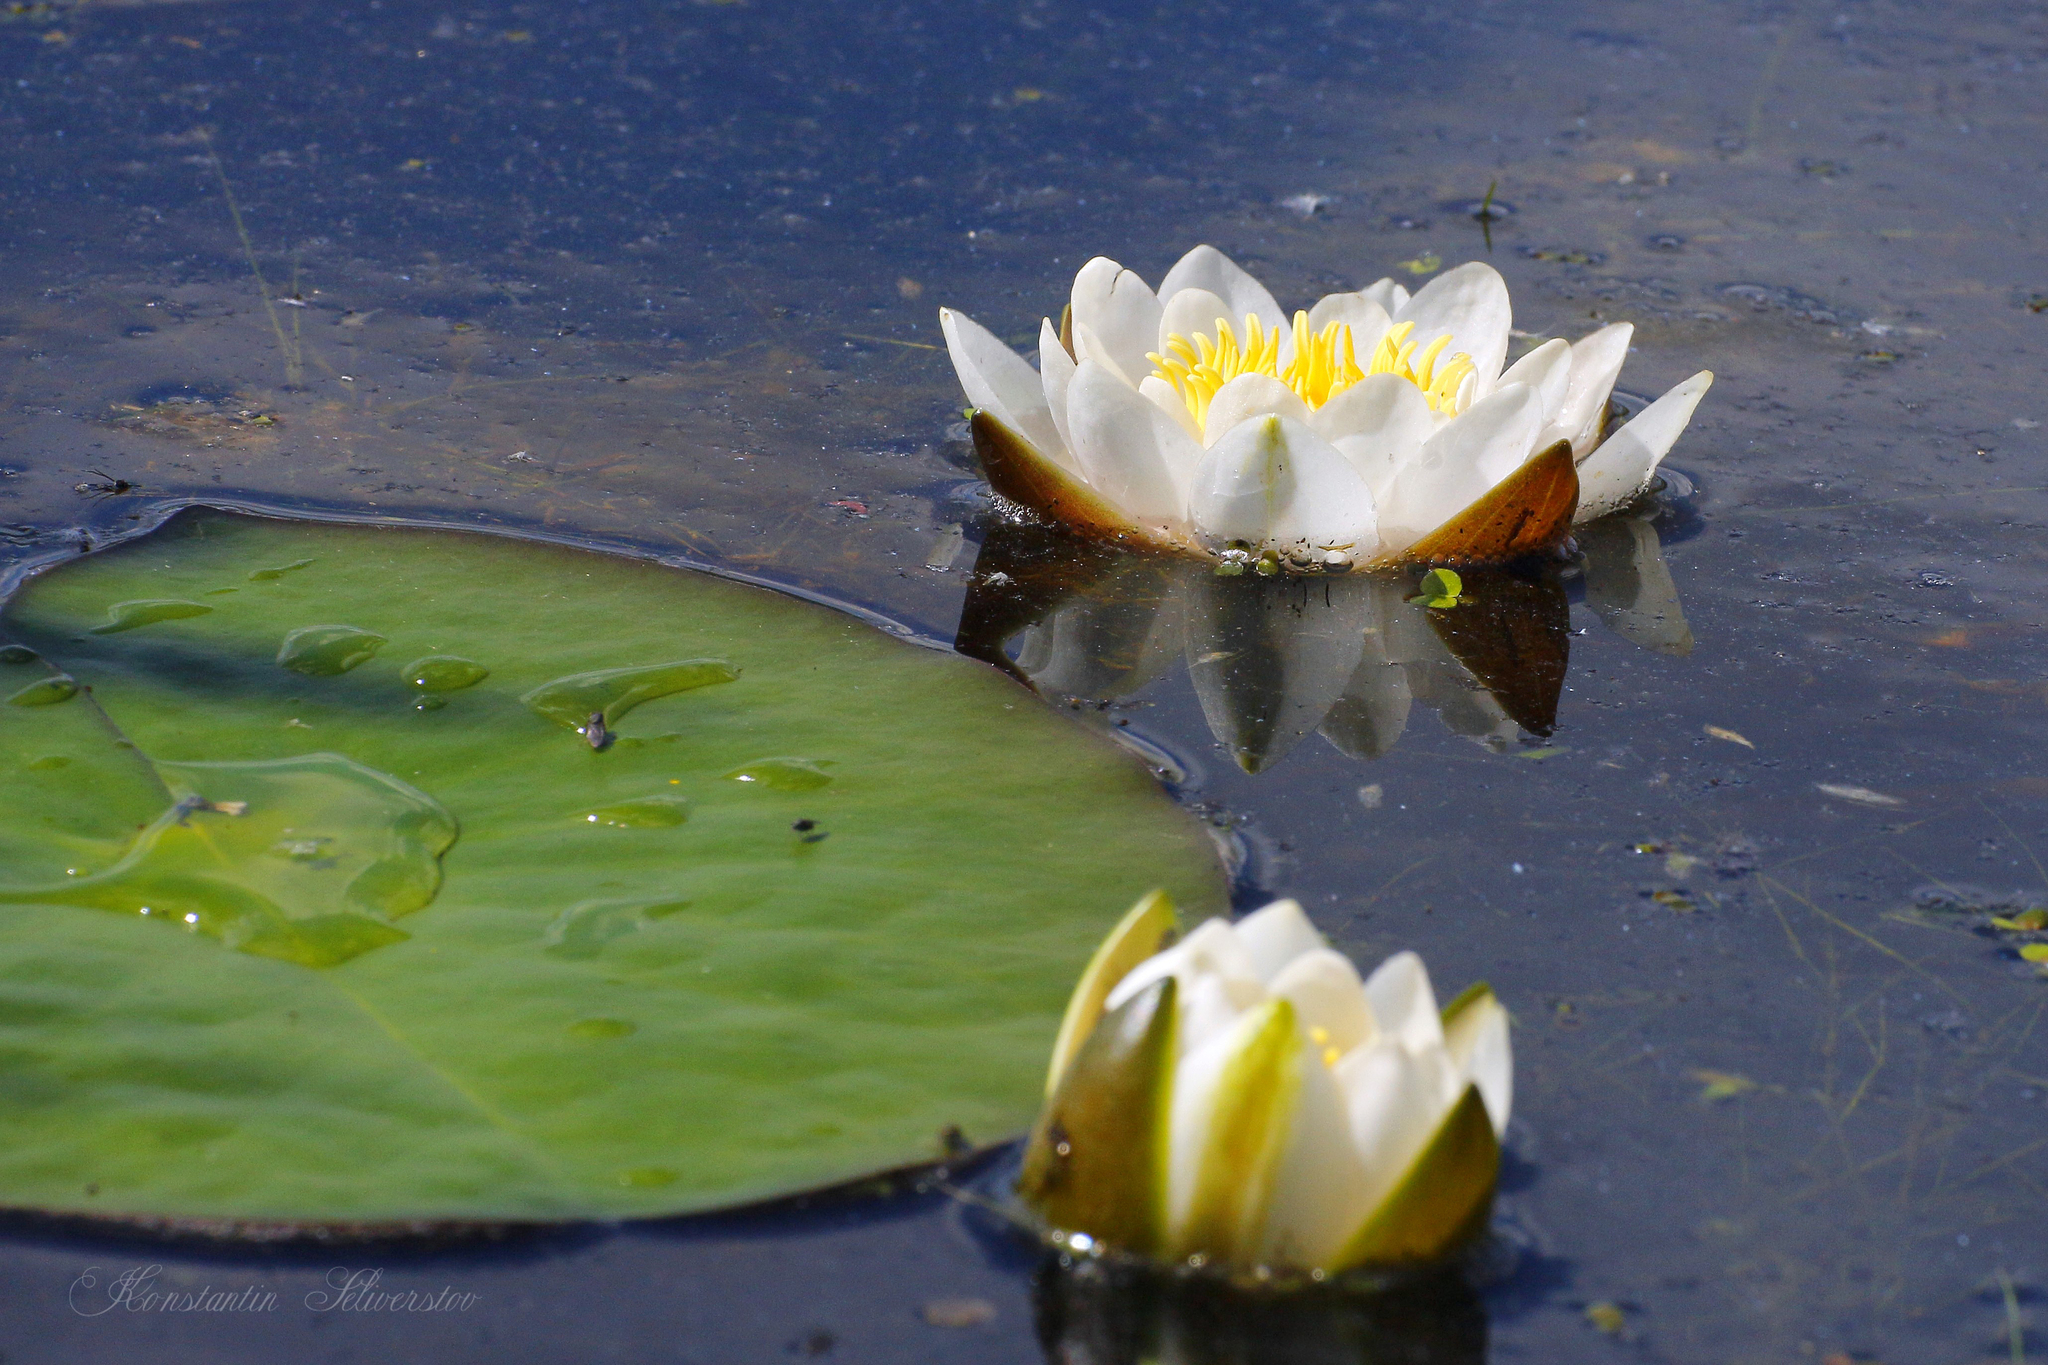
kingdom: Plantae
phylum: Tracheophyta
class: Magnoliopsida
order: Nymphaeales
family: Nymphaeaceae
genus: Nymphaea
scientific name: Nymphaea candida
